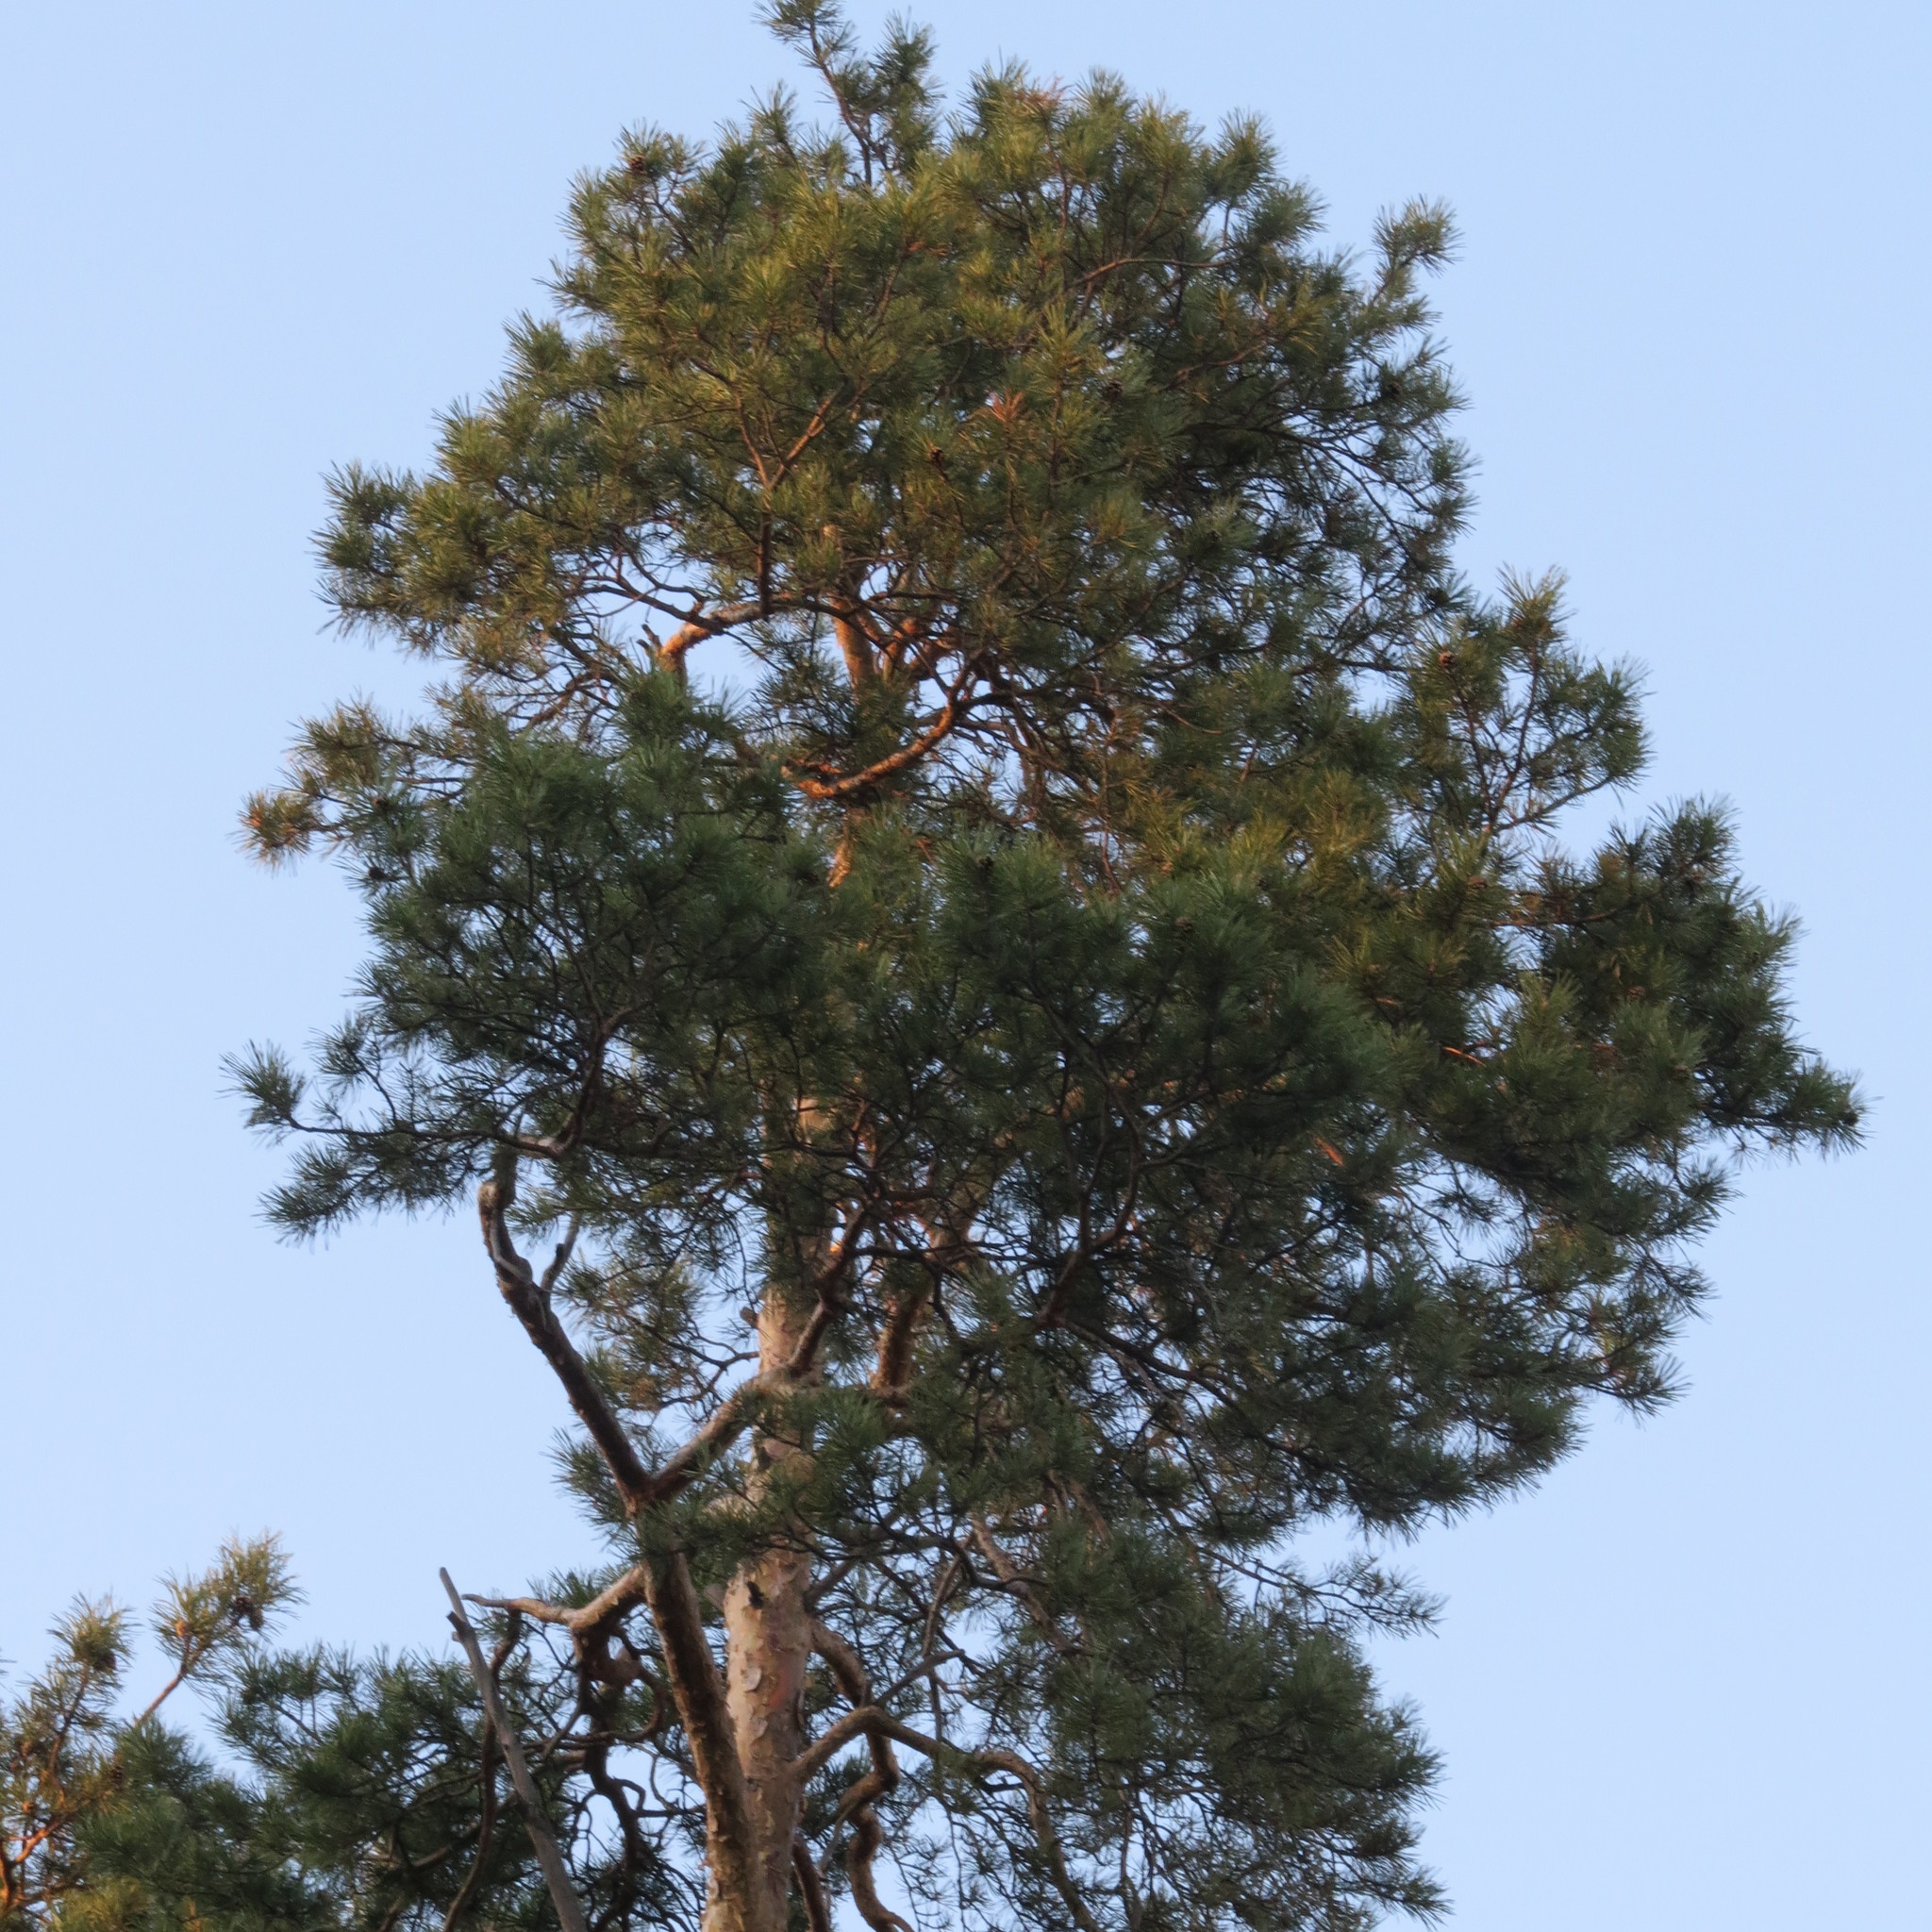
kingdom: Plantae
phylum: Tracheophyta
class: Pinopsida
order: Pinales
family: Pinaceae
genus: Pinus
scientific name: Pinus sylvestris
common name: Scots pine
